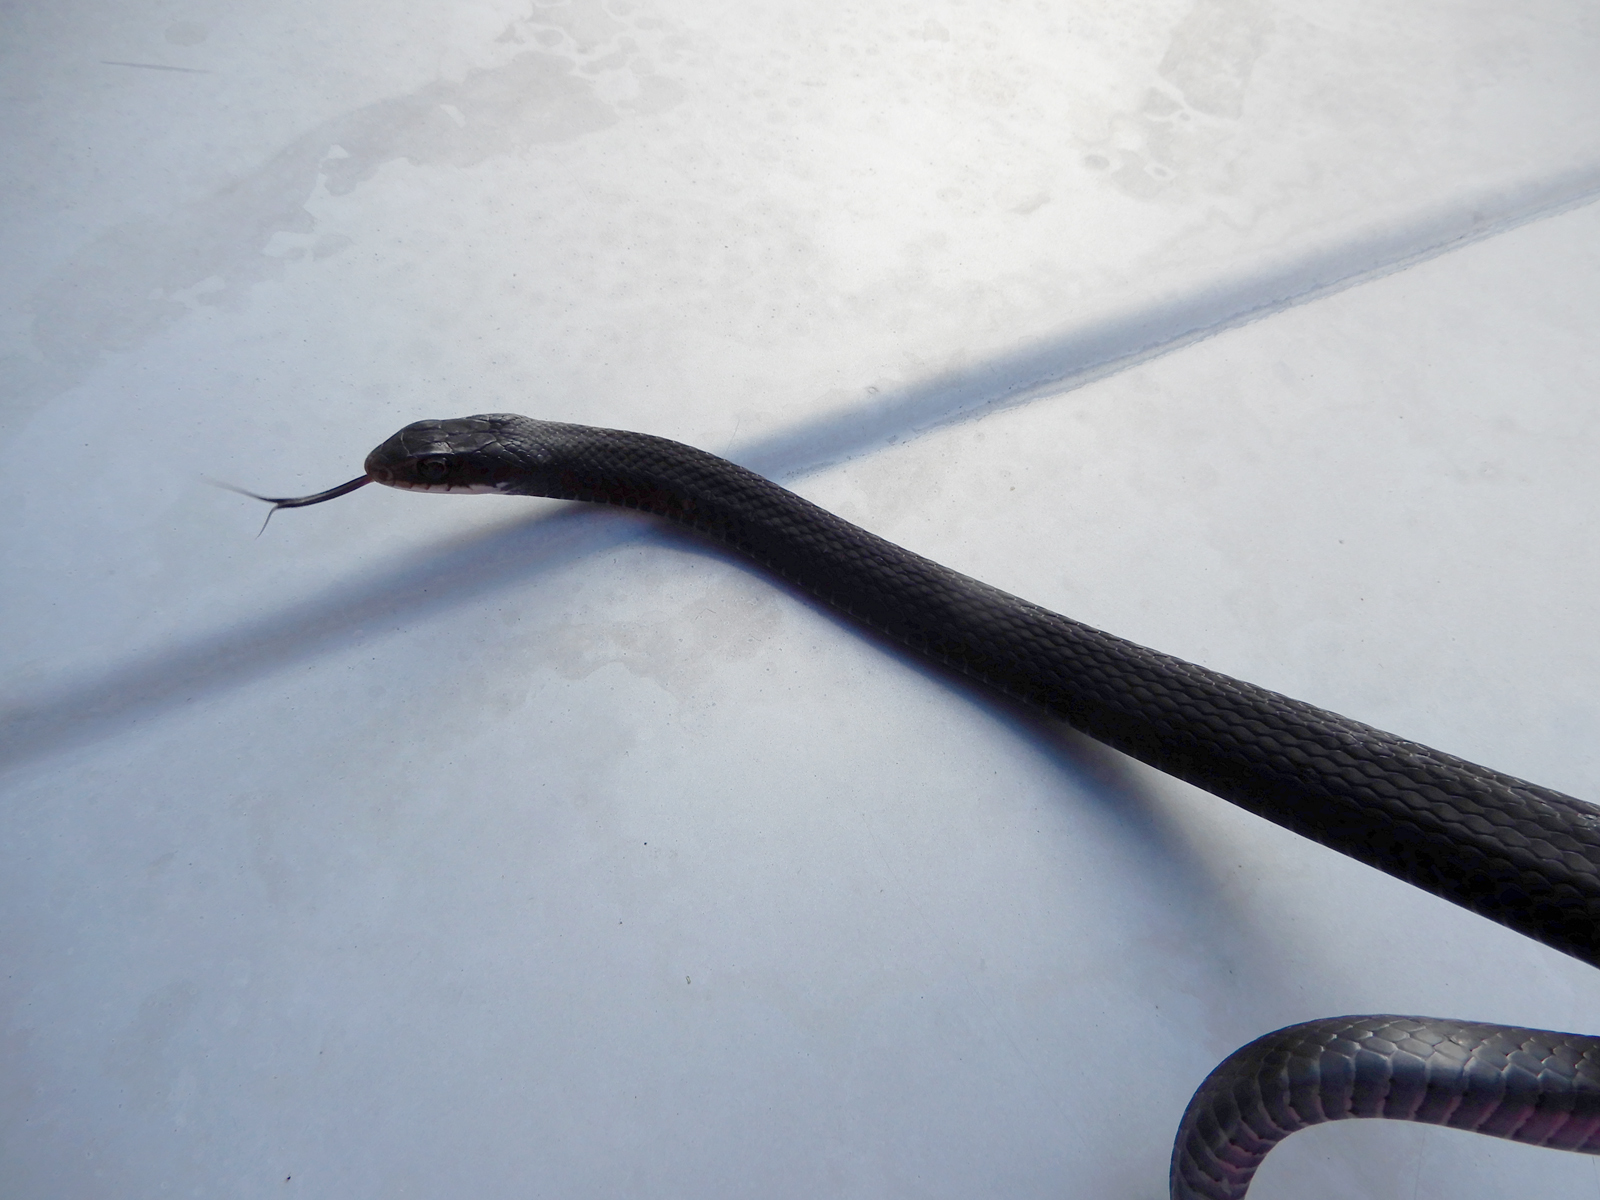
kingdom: Animalia
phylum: Chordata
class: Squamata
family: Colubridae
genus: Coluber
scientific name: Coluber constrictor
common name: Eastern racer
